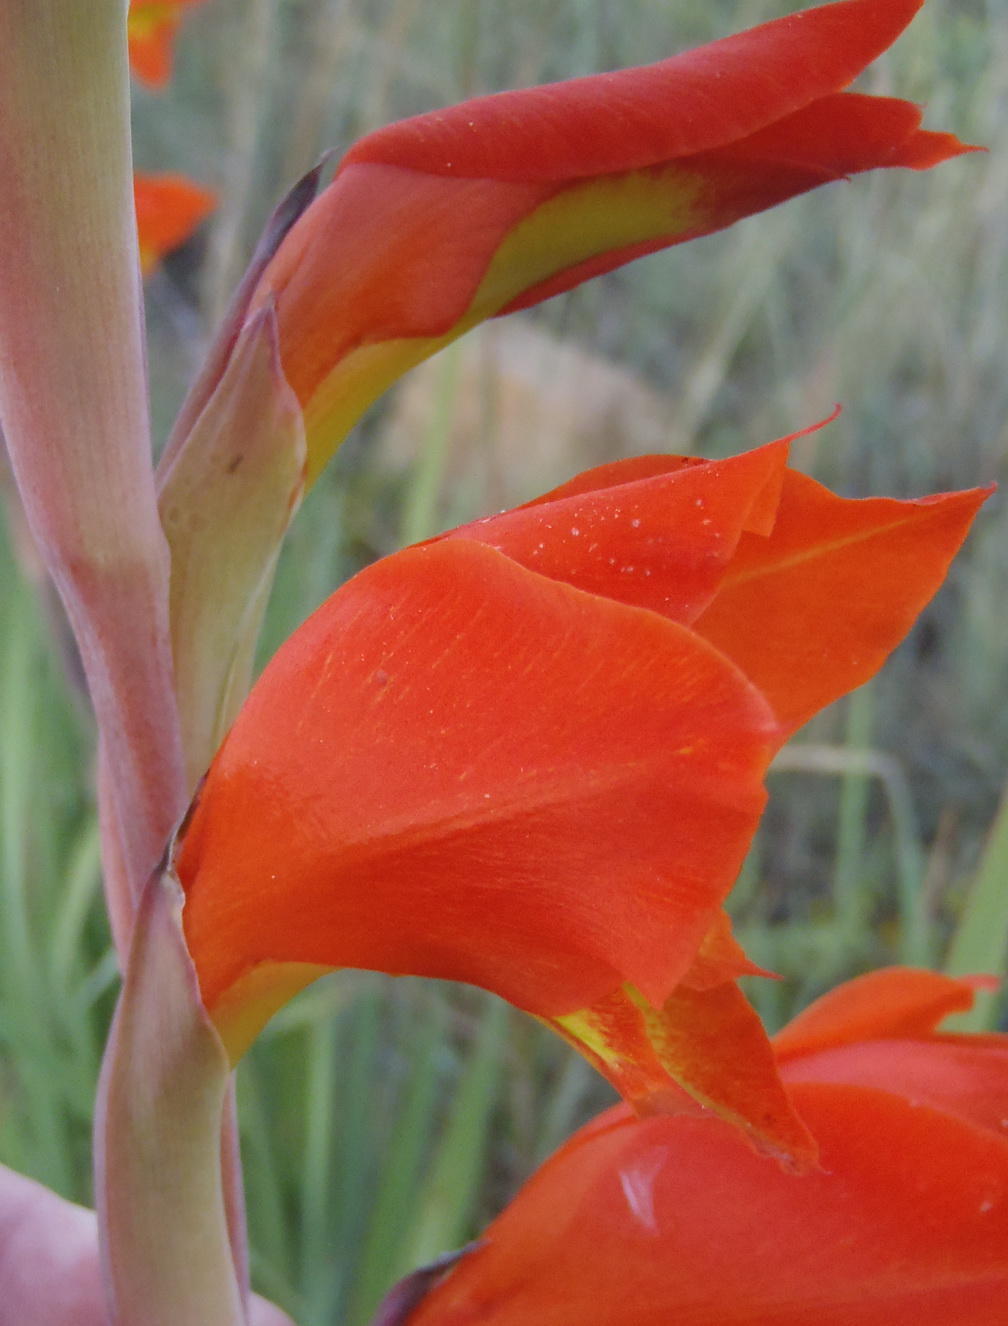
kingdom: Plantae
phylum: Tracheophyta
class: Liliopsida
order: Asparagales
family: Iridaceae
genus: Gladiolus
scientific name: Gladiolus dalenii
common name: Cornflag
